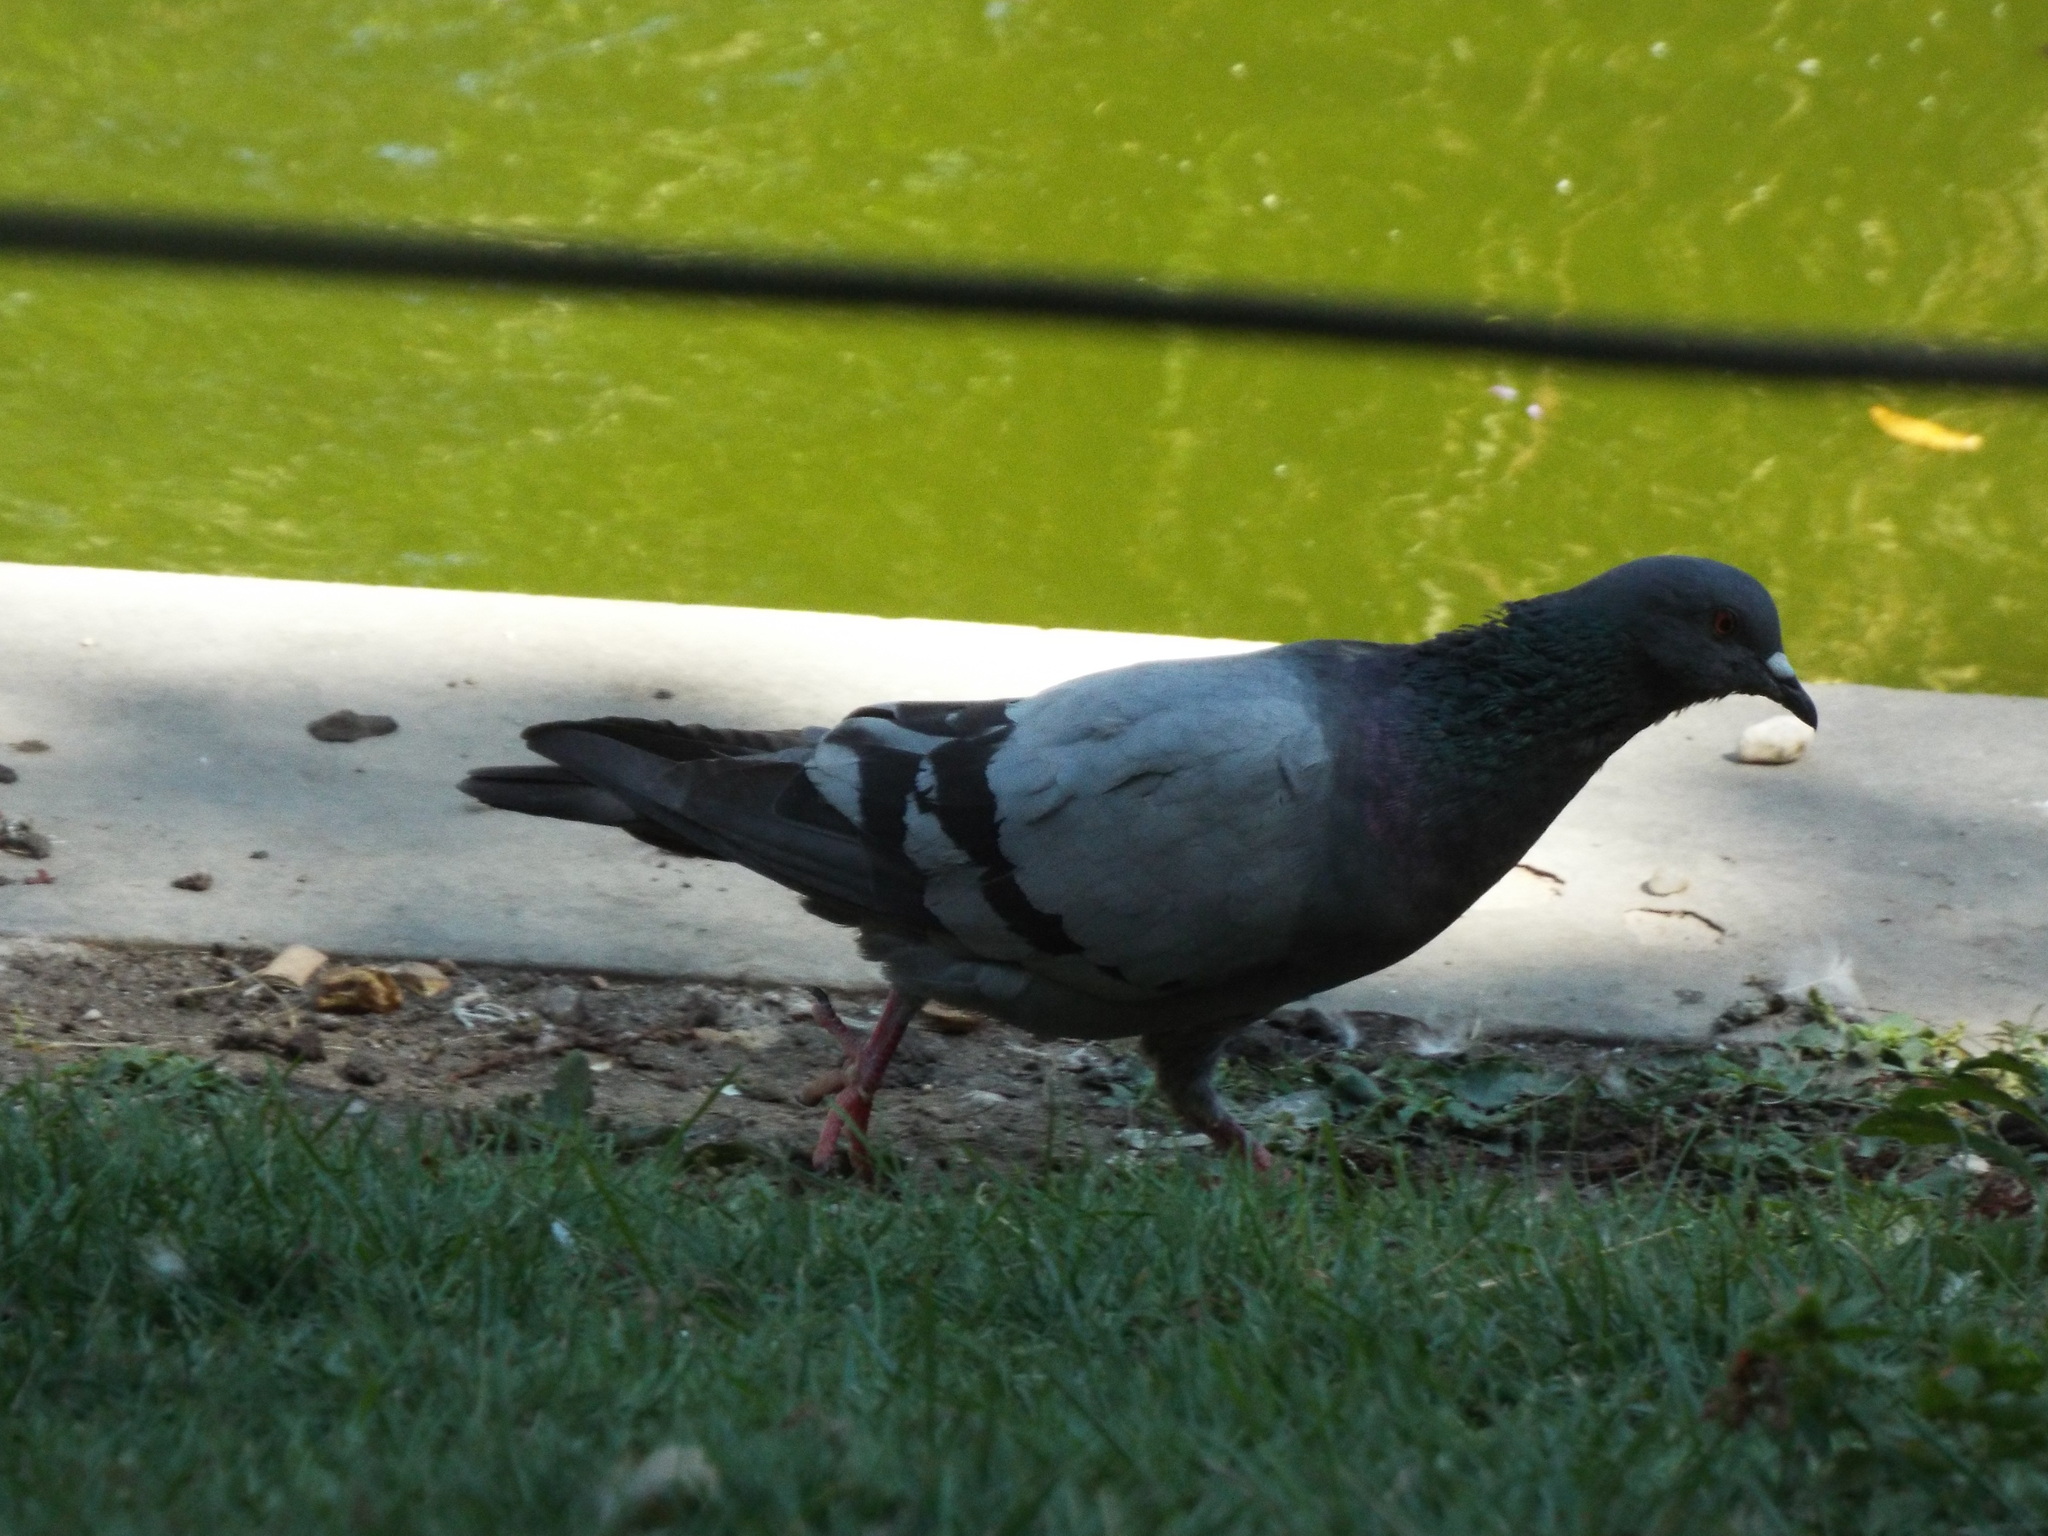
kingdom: Animalia
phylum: Chordata
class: Aves
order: Columbiformes
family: Columbidae
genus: Columba
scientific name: Columba livia
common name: Rock pigeon
